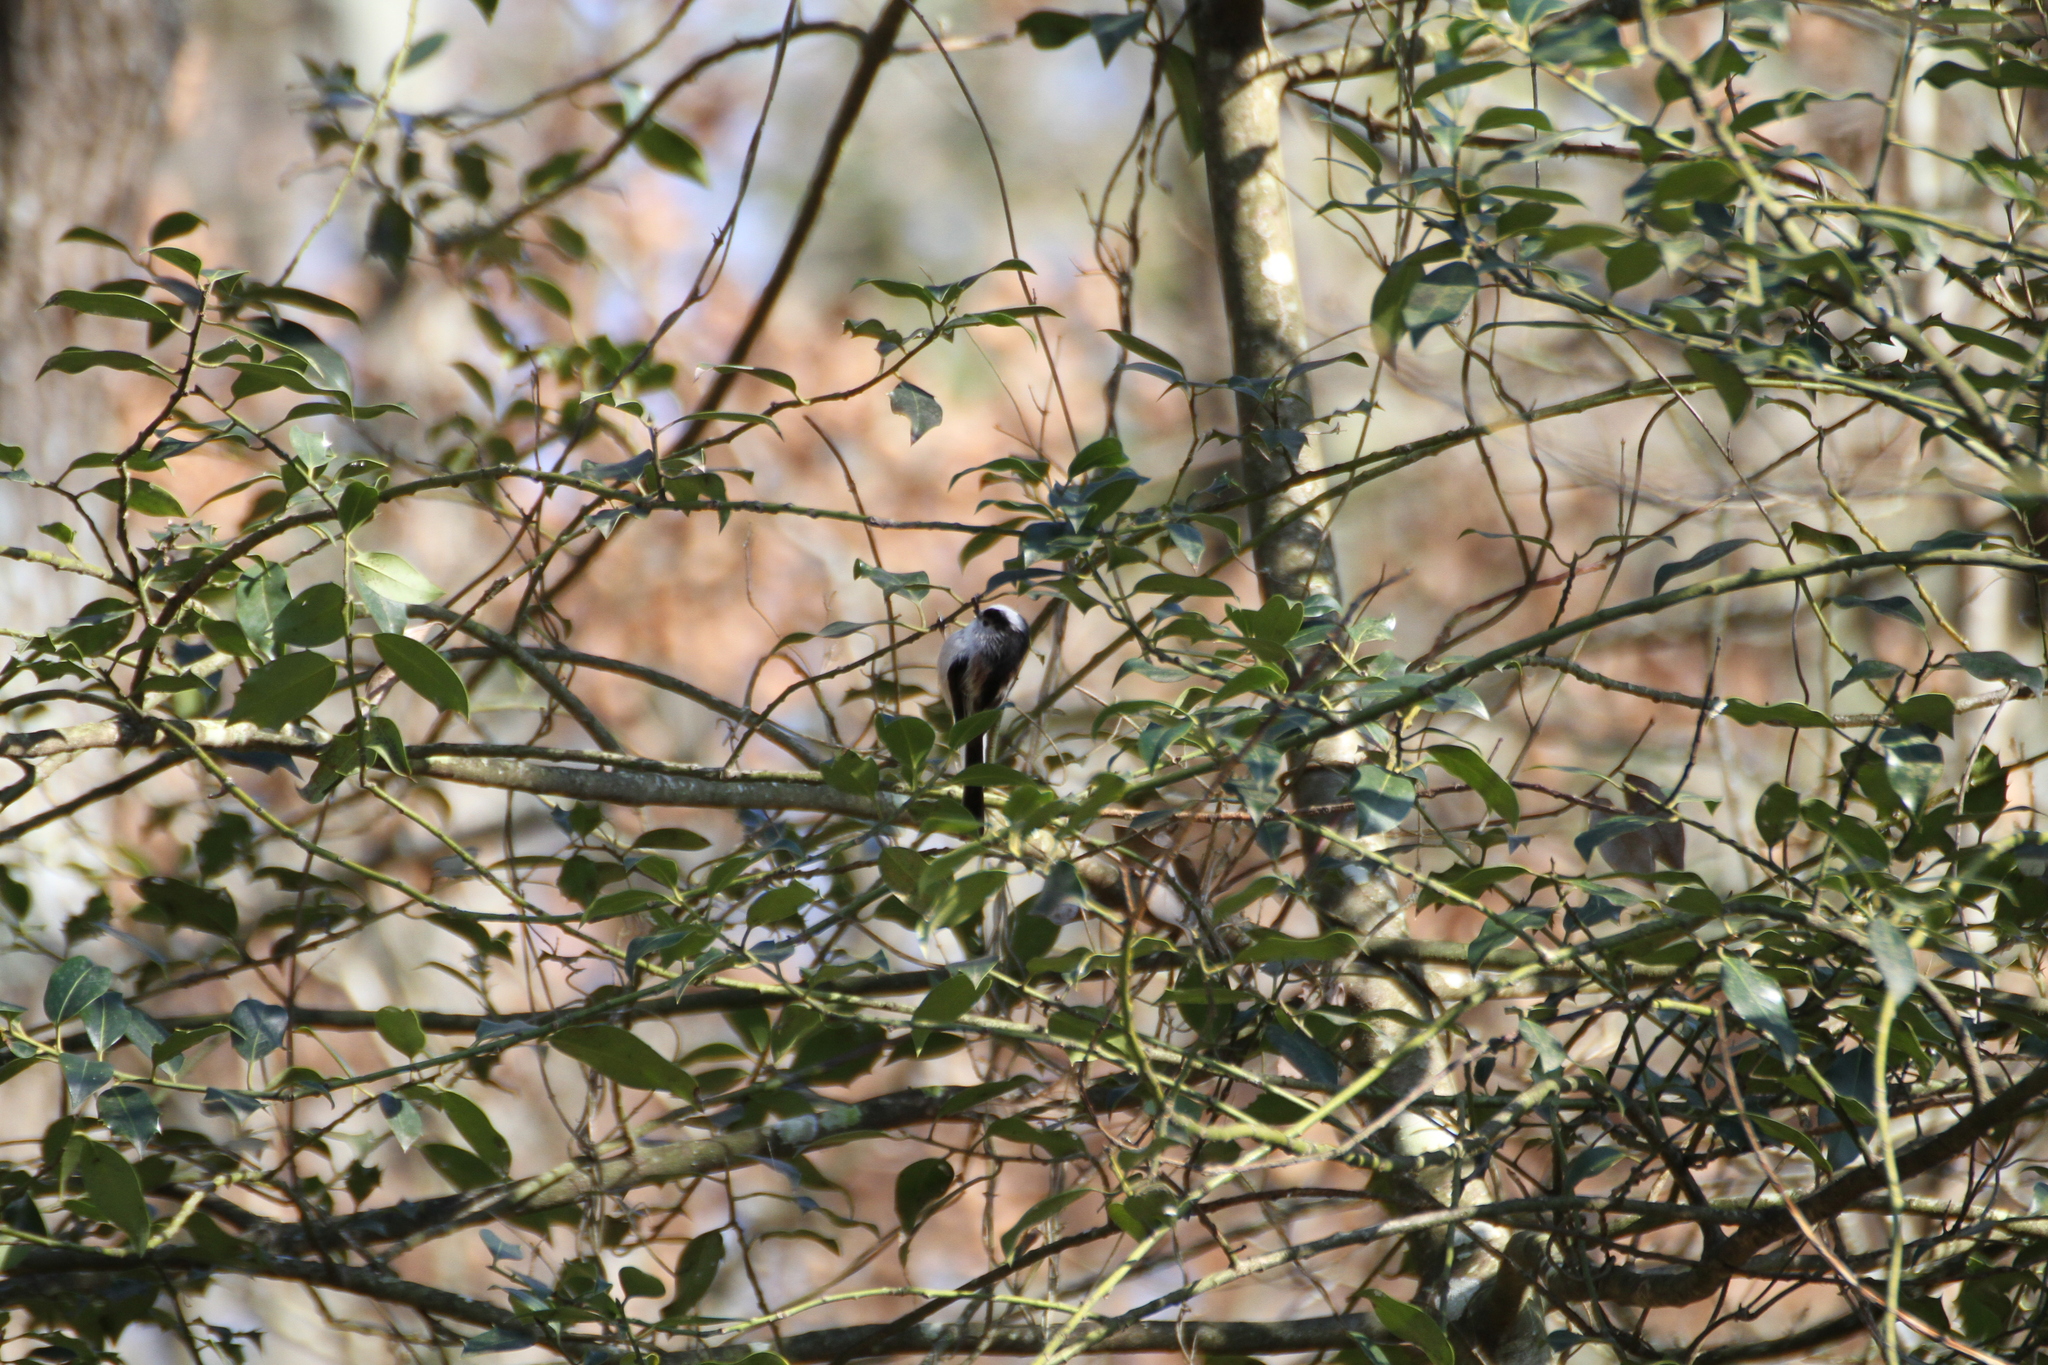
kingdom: Animalia
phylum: Chordata
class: Aves
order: Passeriformes
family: Aegithalidae
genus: Aegithalos
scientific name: Aegithalos caudatus
